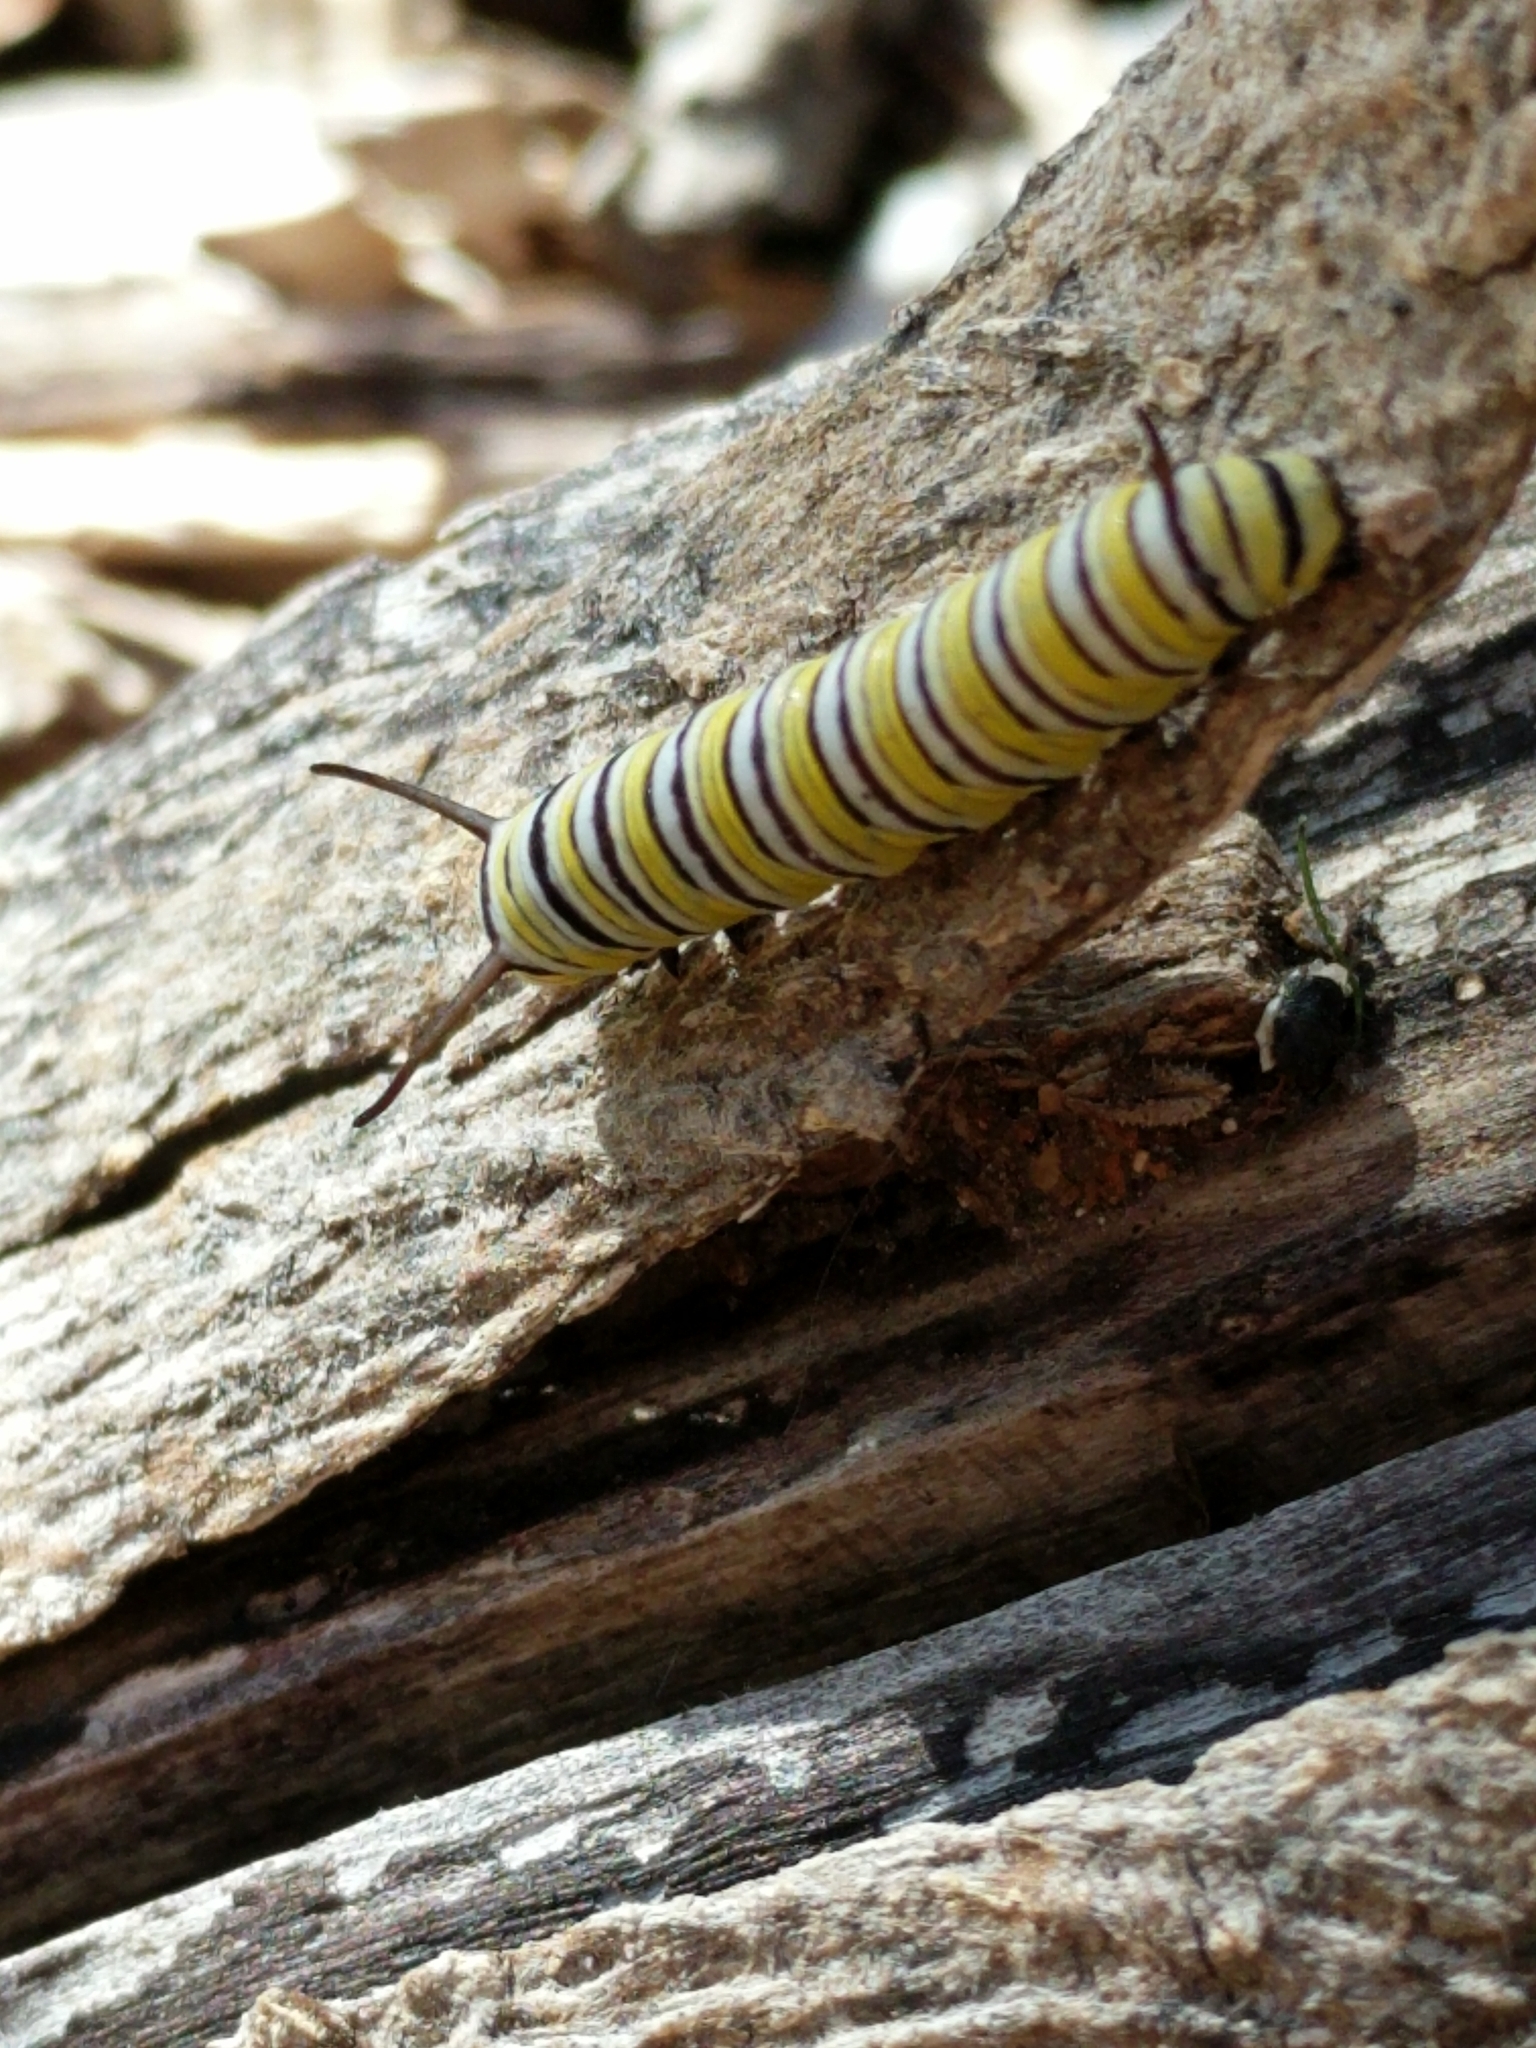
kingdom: Animalia
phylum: Arthropoda
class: Insecta
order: Lepidoptera
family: Nymphalidae
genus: Danaus
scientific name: Danaus plexippus
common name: Monarch
